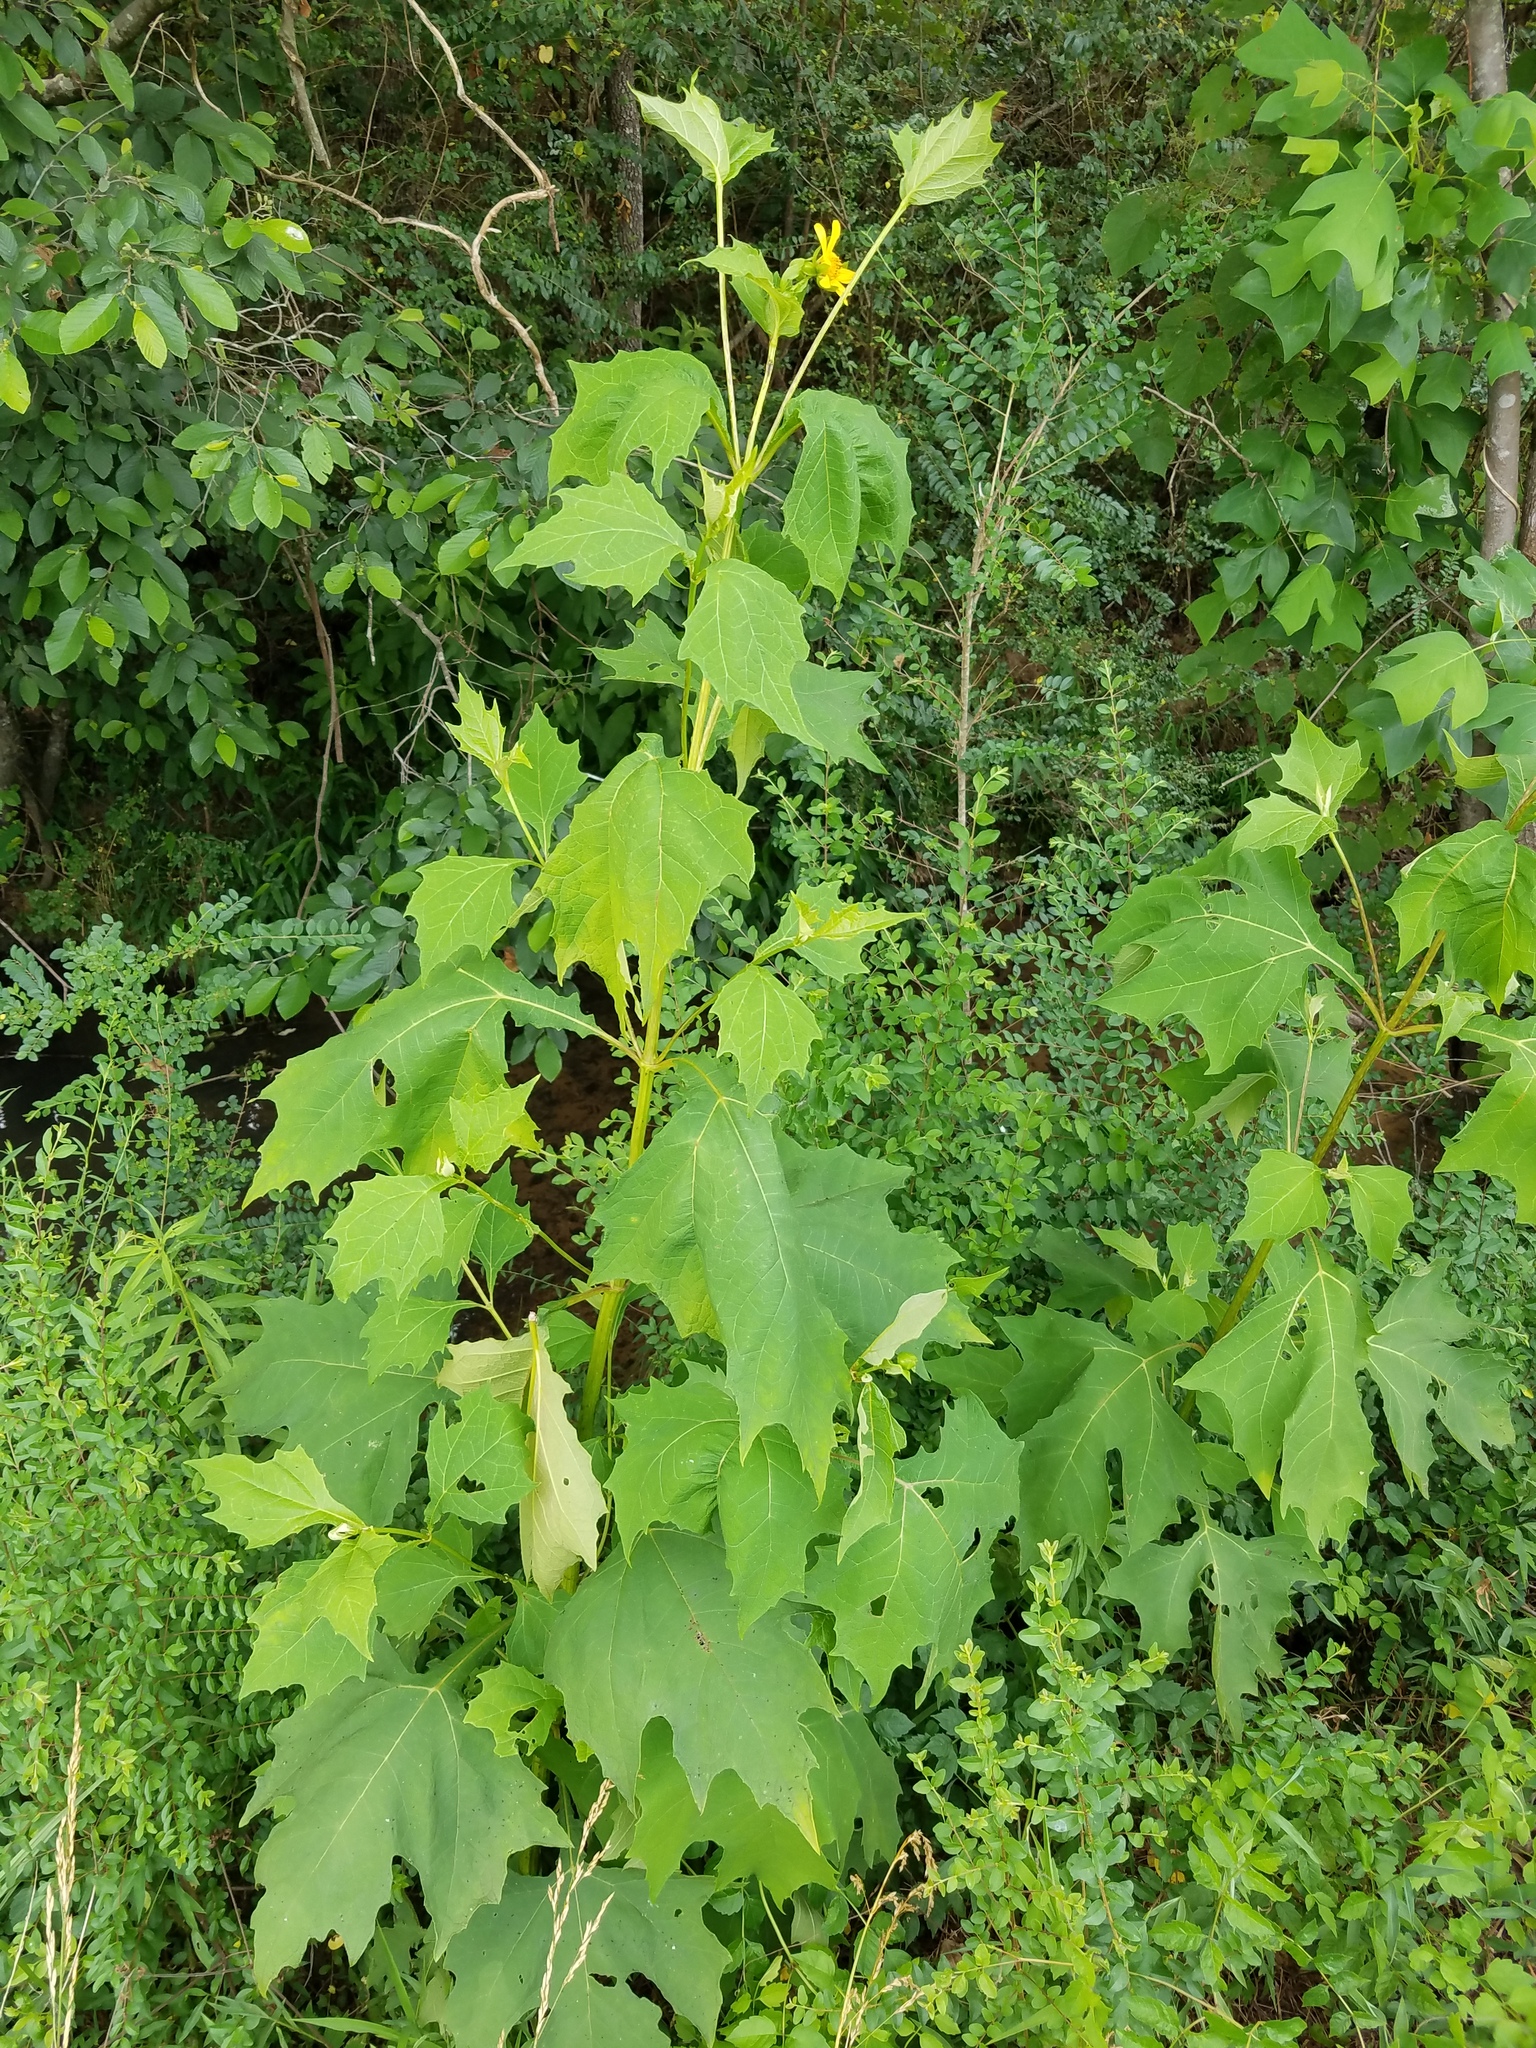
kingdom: Plantae
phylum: Tracheophyta
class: Magnoliopsida
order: Asterales
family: Asteraceae
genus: Smallanthus
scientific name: Smallanthus uvedalia
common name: Bear's-foot
